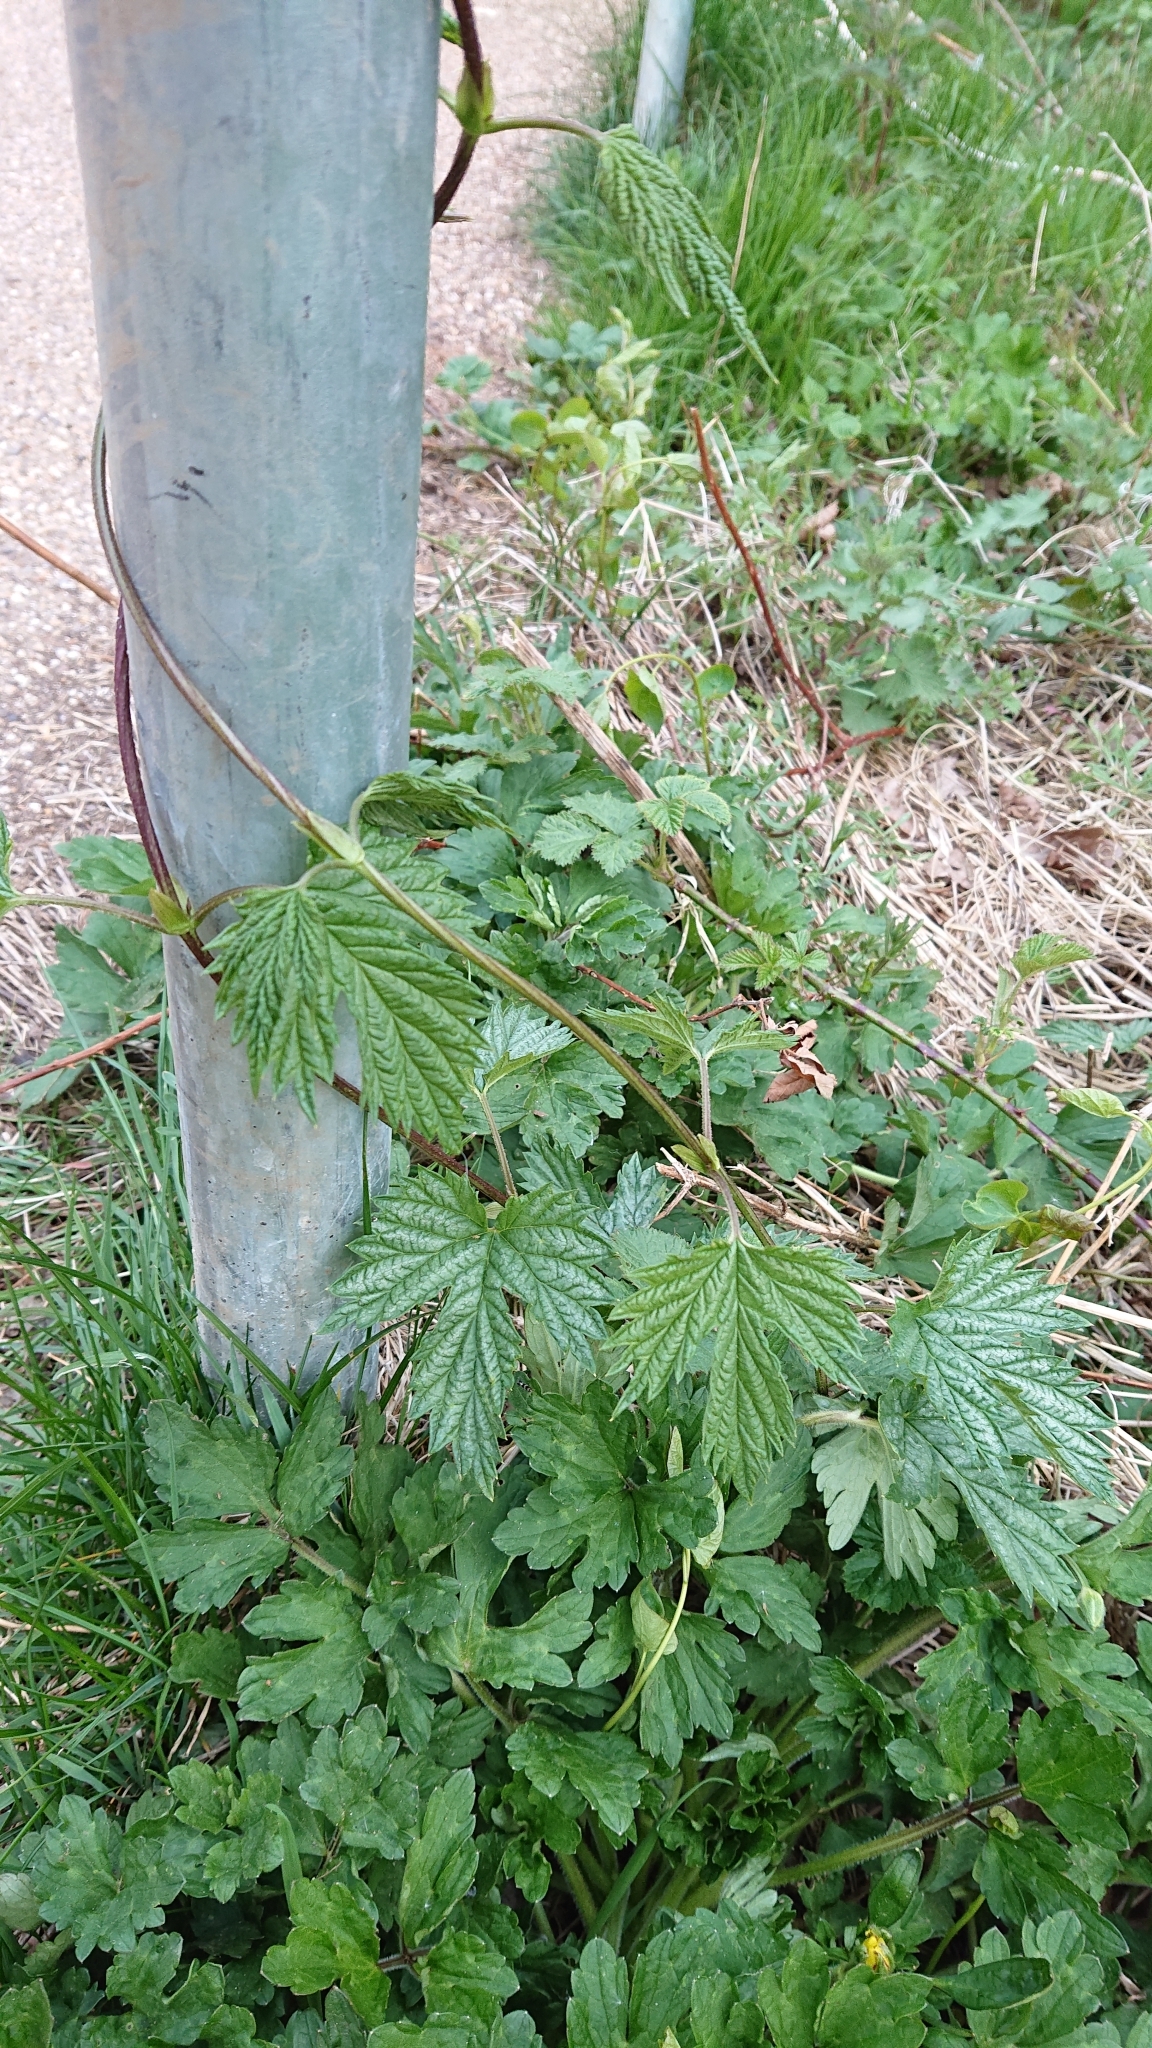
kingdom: Plantae
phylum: Tracheophyta
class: Magnoliopsida
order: Rosales
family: Cannabaceae
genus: Humulus
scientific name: Humulus lupulus
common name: Hop
